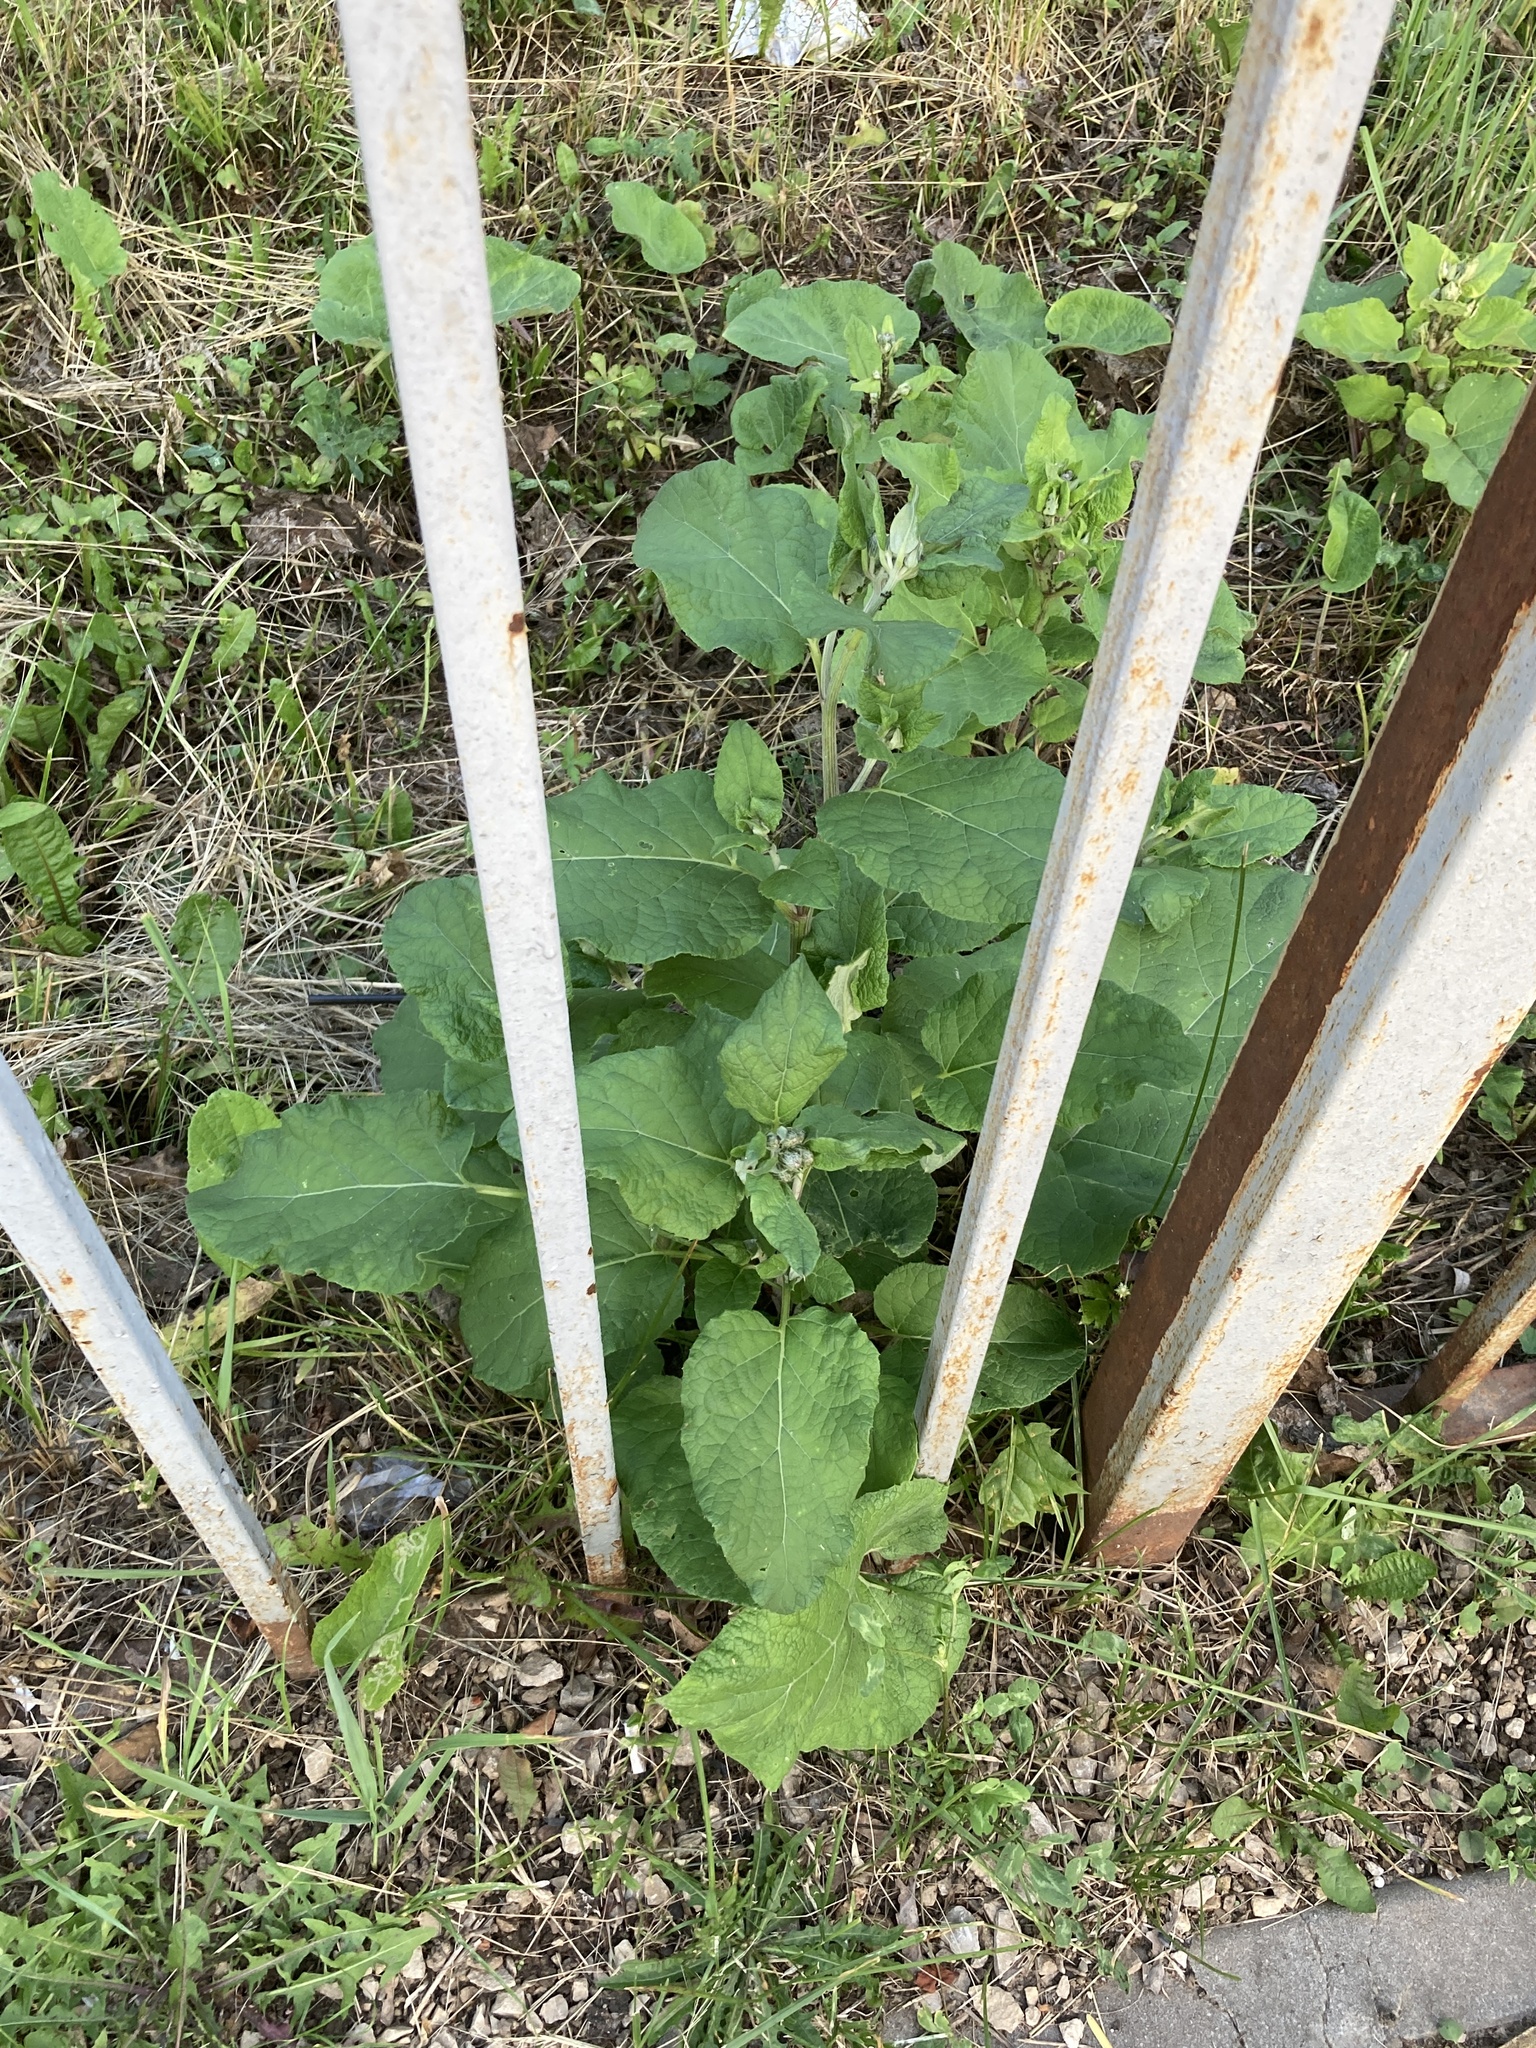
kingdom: Plantae
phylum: Tracheophyta
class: Magnoliopsida
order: Asterales
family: Asteraceae
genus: Arctium
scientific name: Arctium tomentosum
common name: Woolly burdock
